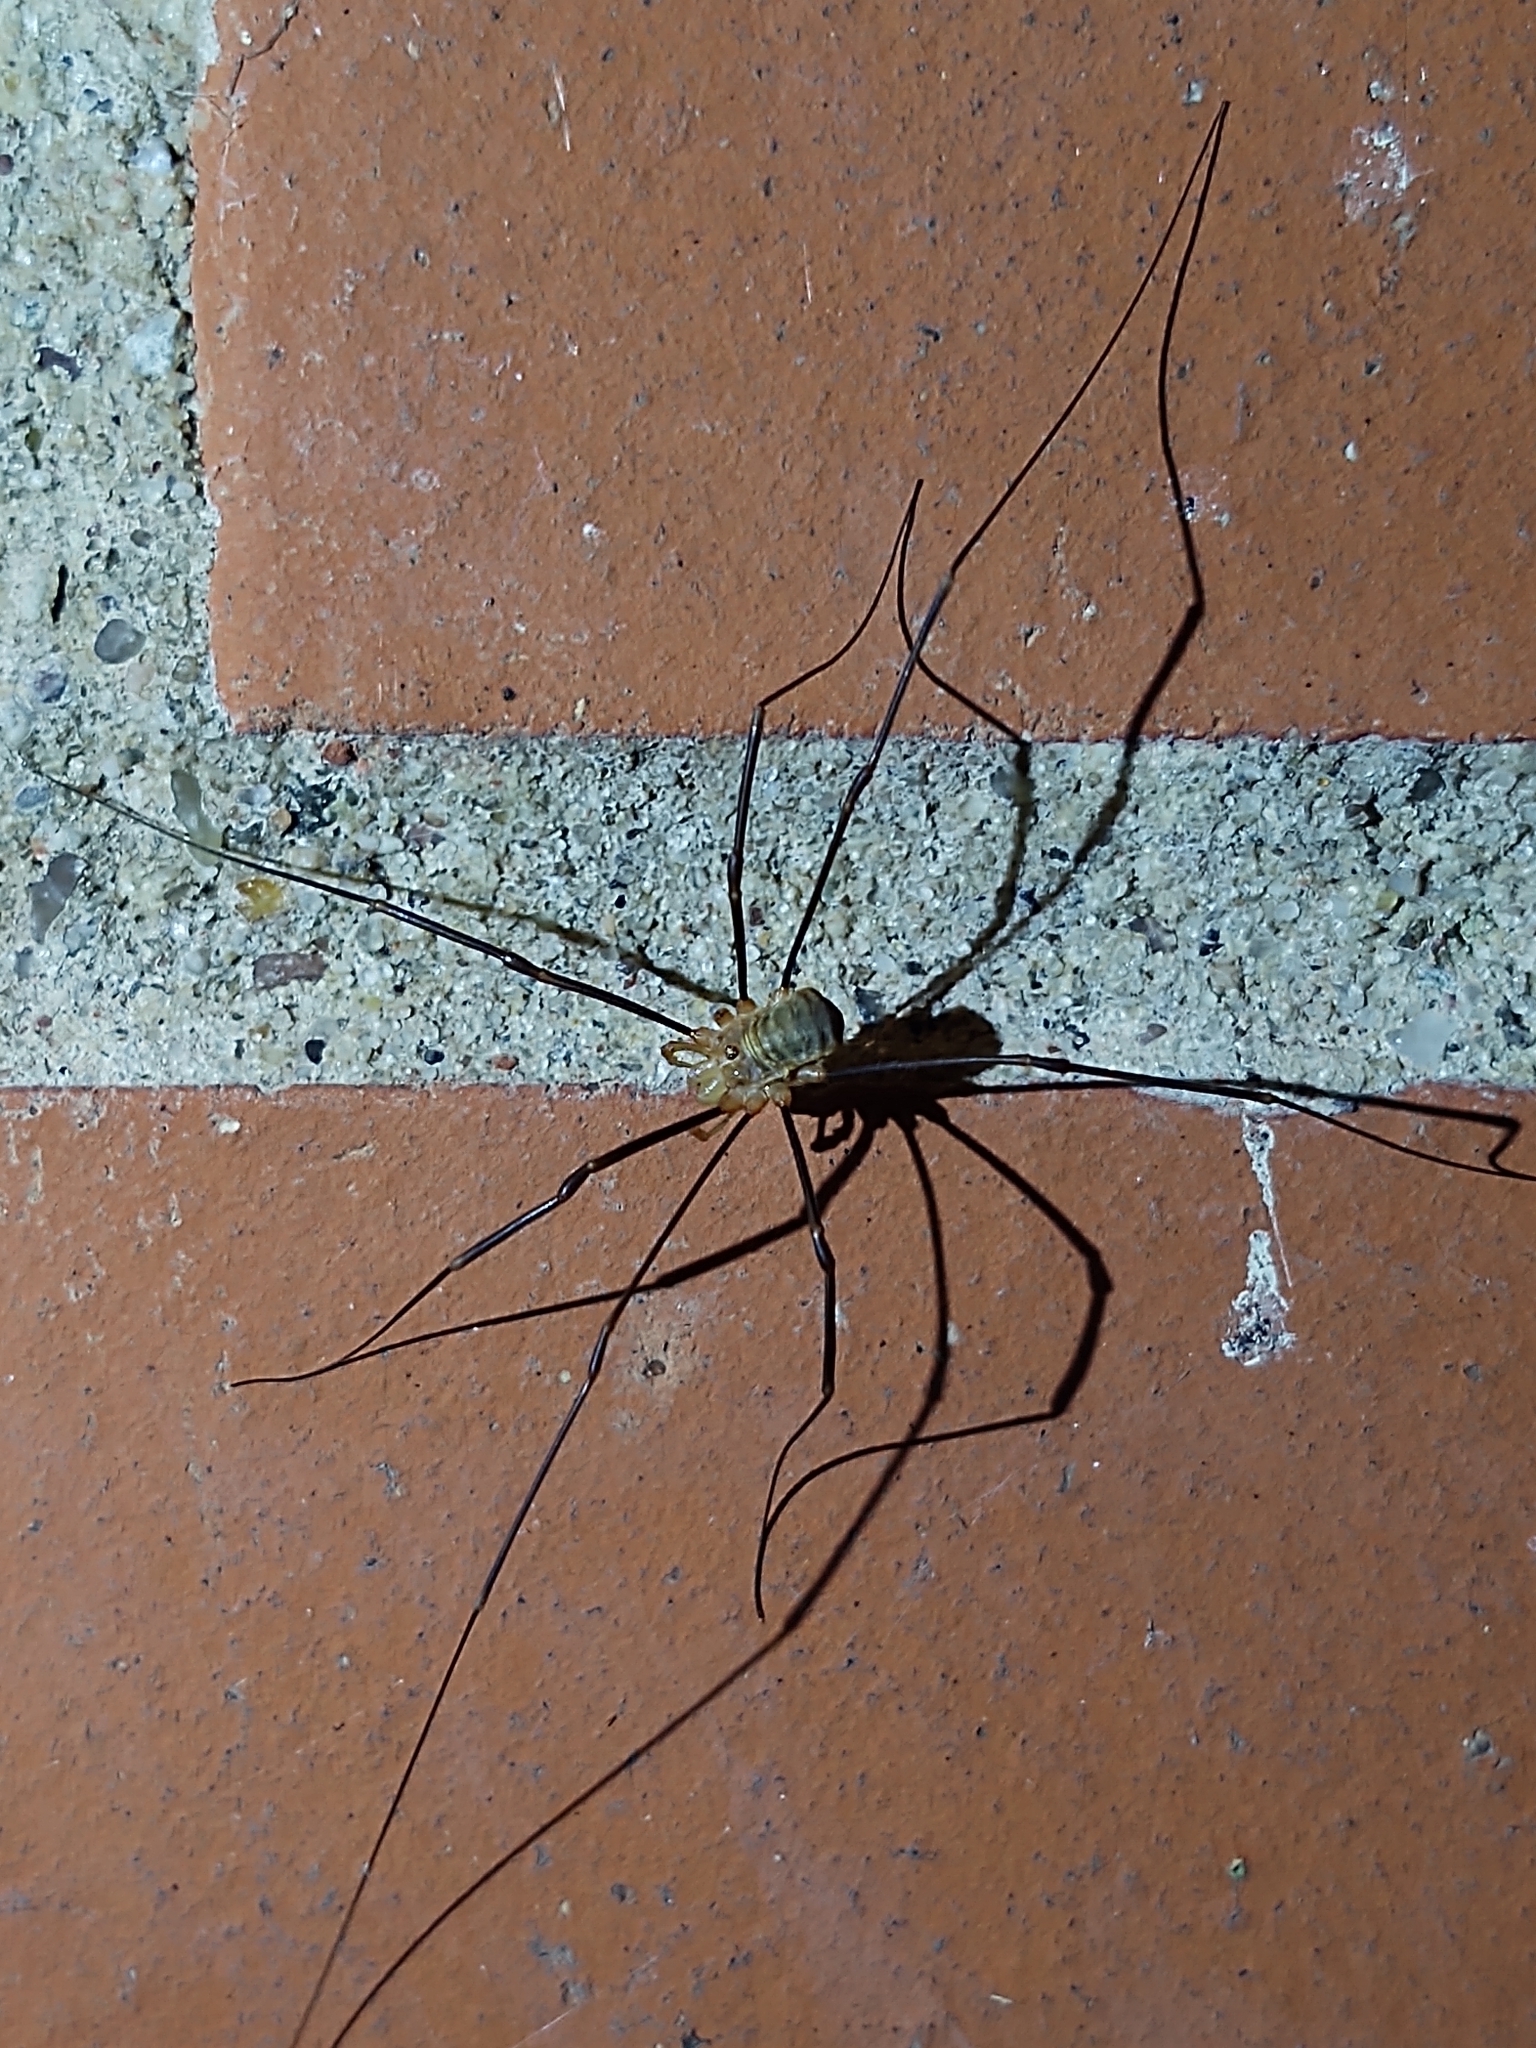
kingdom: Animalia
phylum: Arthropoda
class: Arachnida
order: Opiliones
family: Phalangiidae
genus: Opilio
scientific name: Opilio canestrinii
